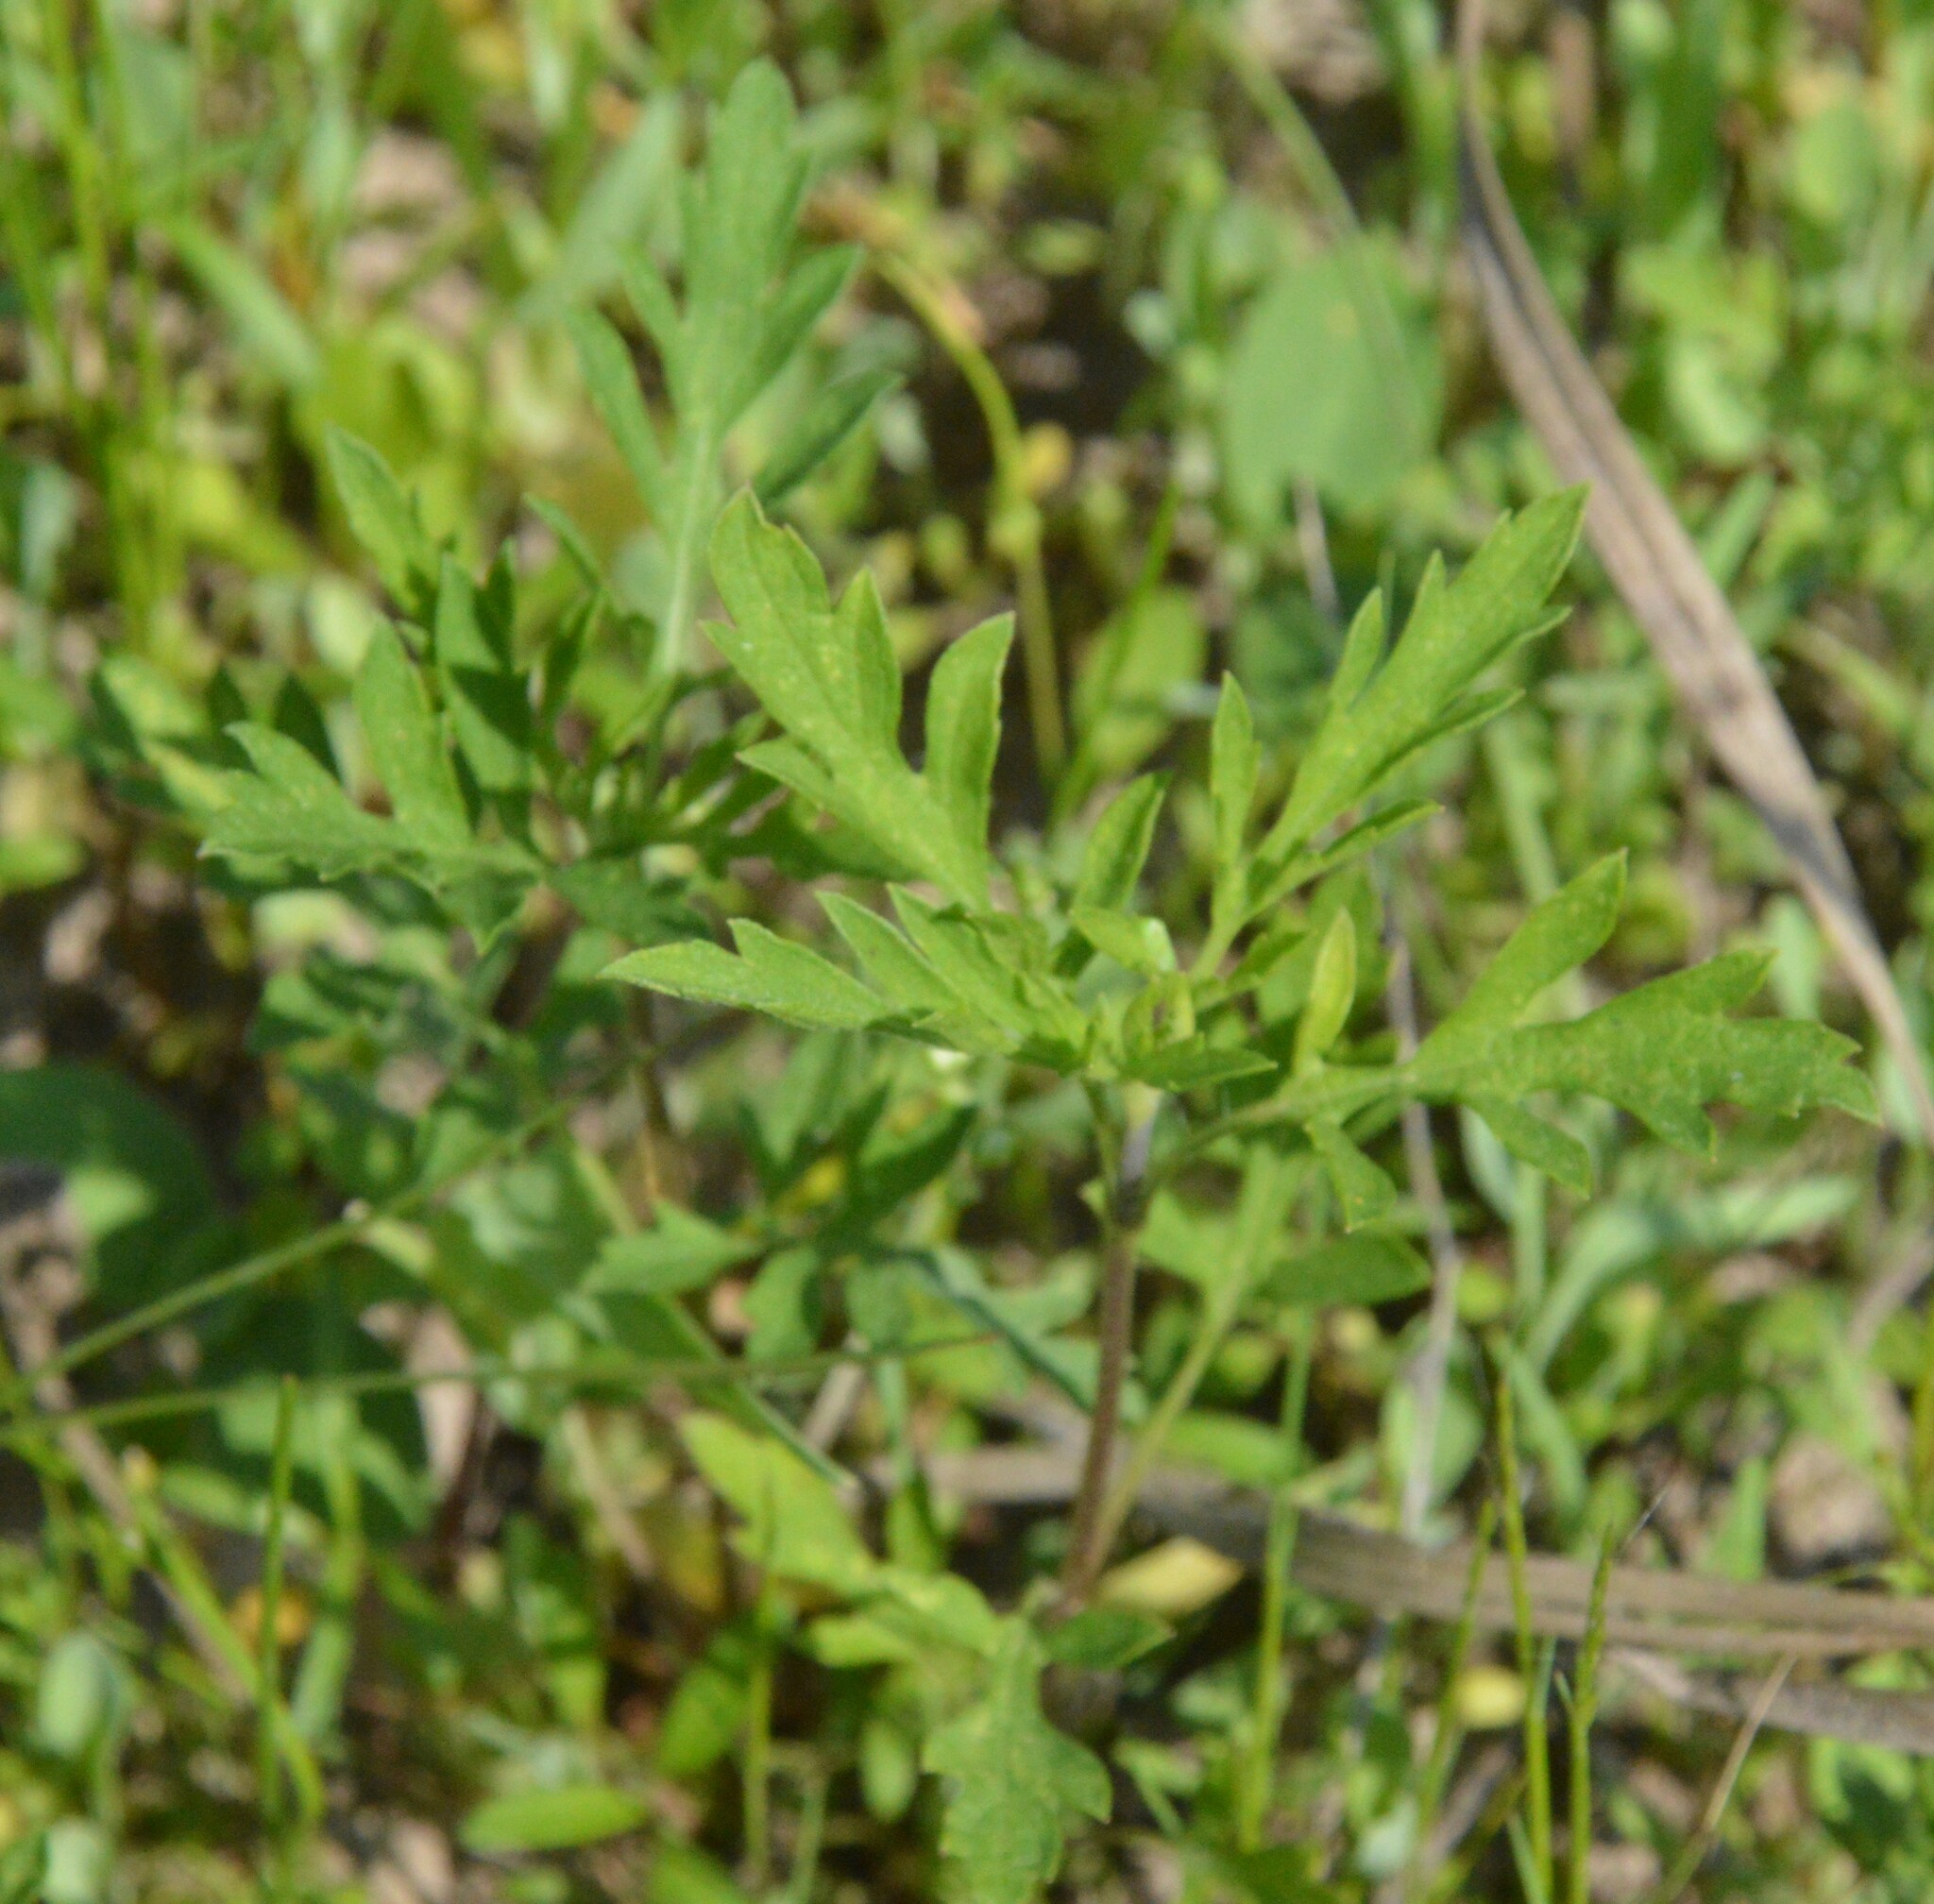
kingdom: Plantae
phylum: Tracheophyta
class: Magnoliopsida
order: Asterales
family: Asteraceae
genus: Ambrosia
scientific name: Ambrosia psilostachya
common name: Perennial ragweed
